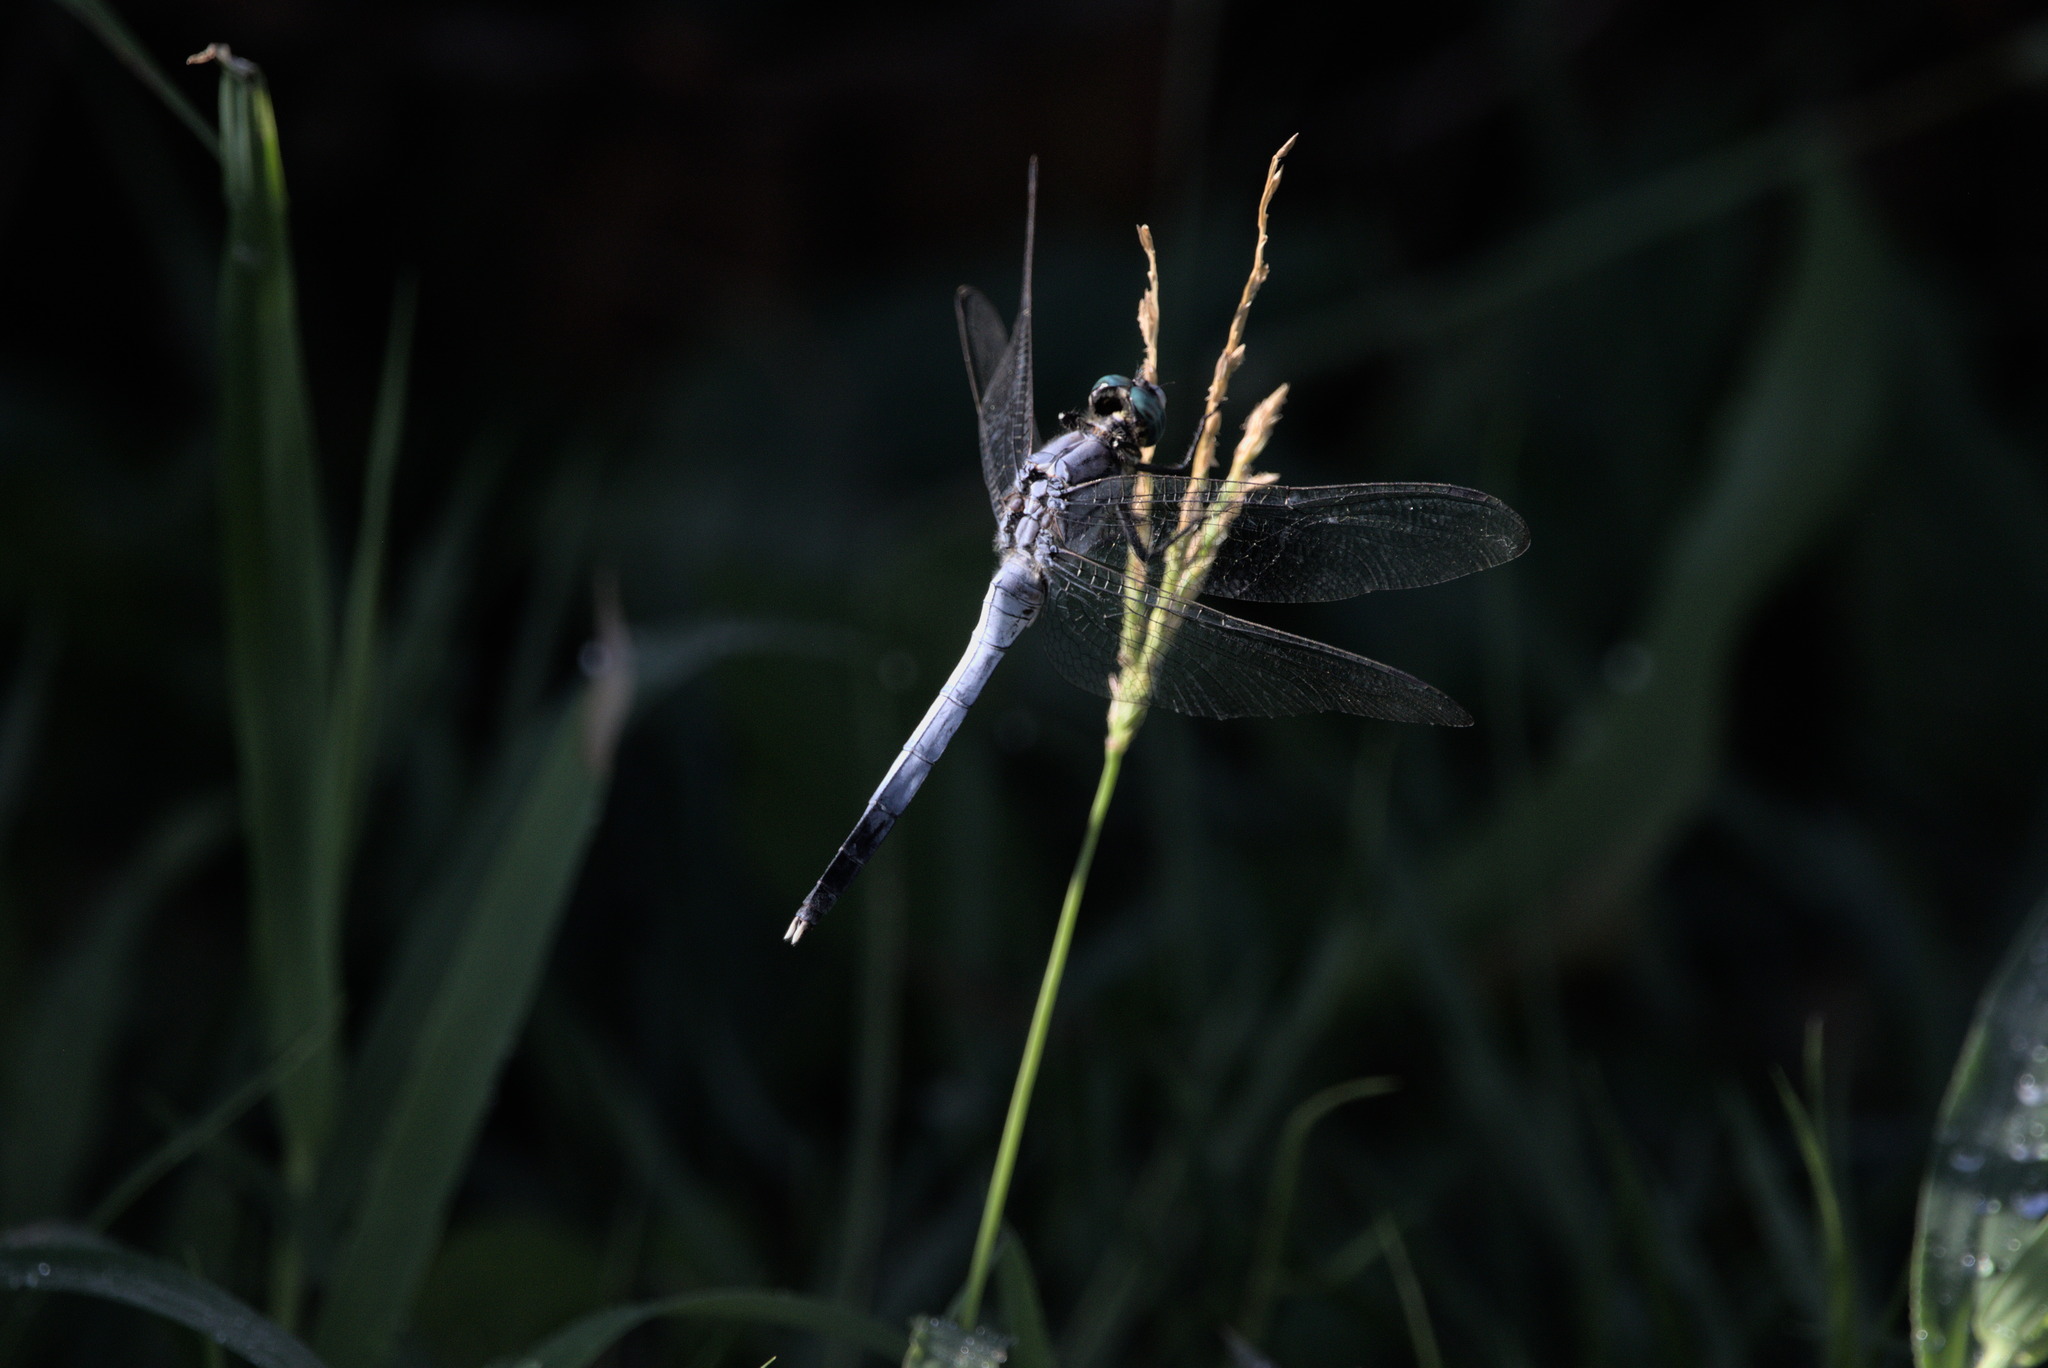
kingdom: Animalia
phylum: Arthropoda
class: Insecta
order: Odonata
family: Libellulidae
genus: Orthetrum
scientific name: Orthetrum albistylum
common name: White-tailed skimmer
